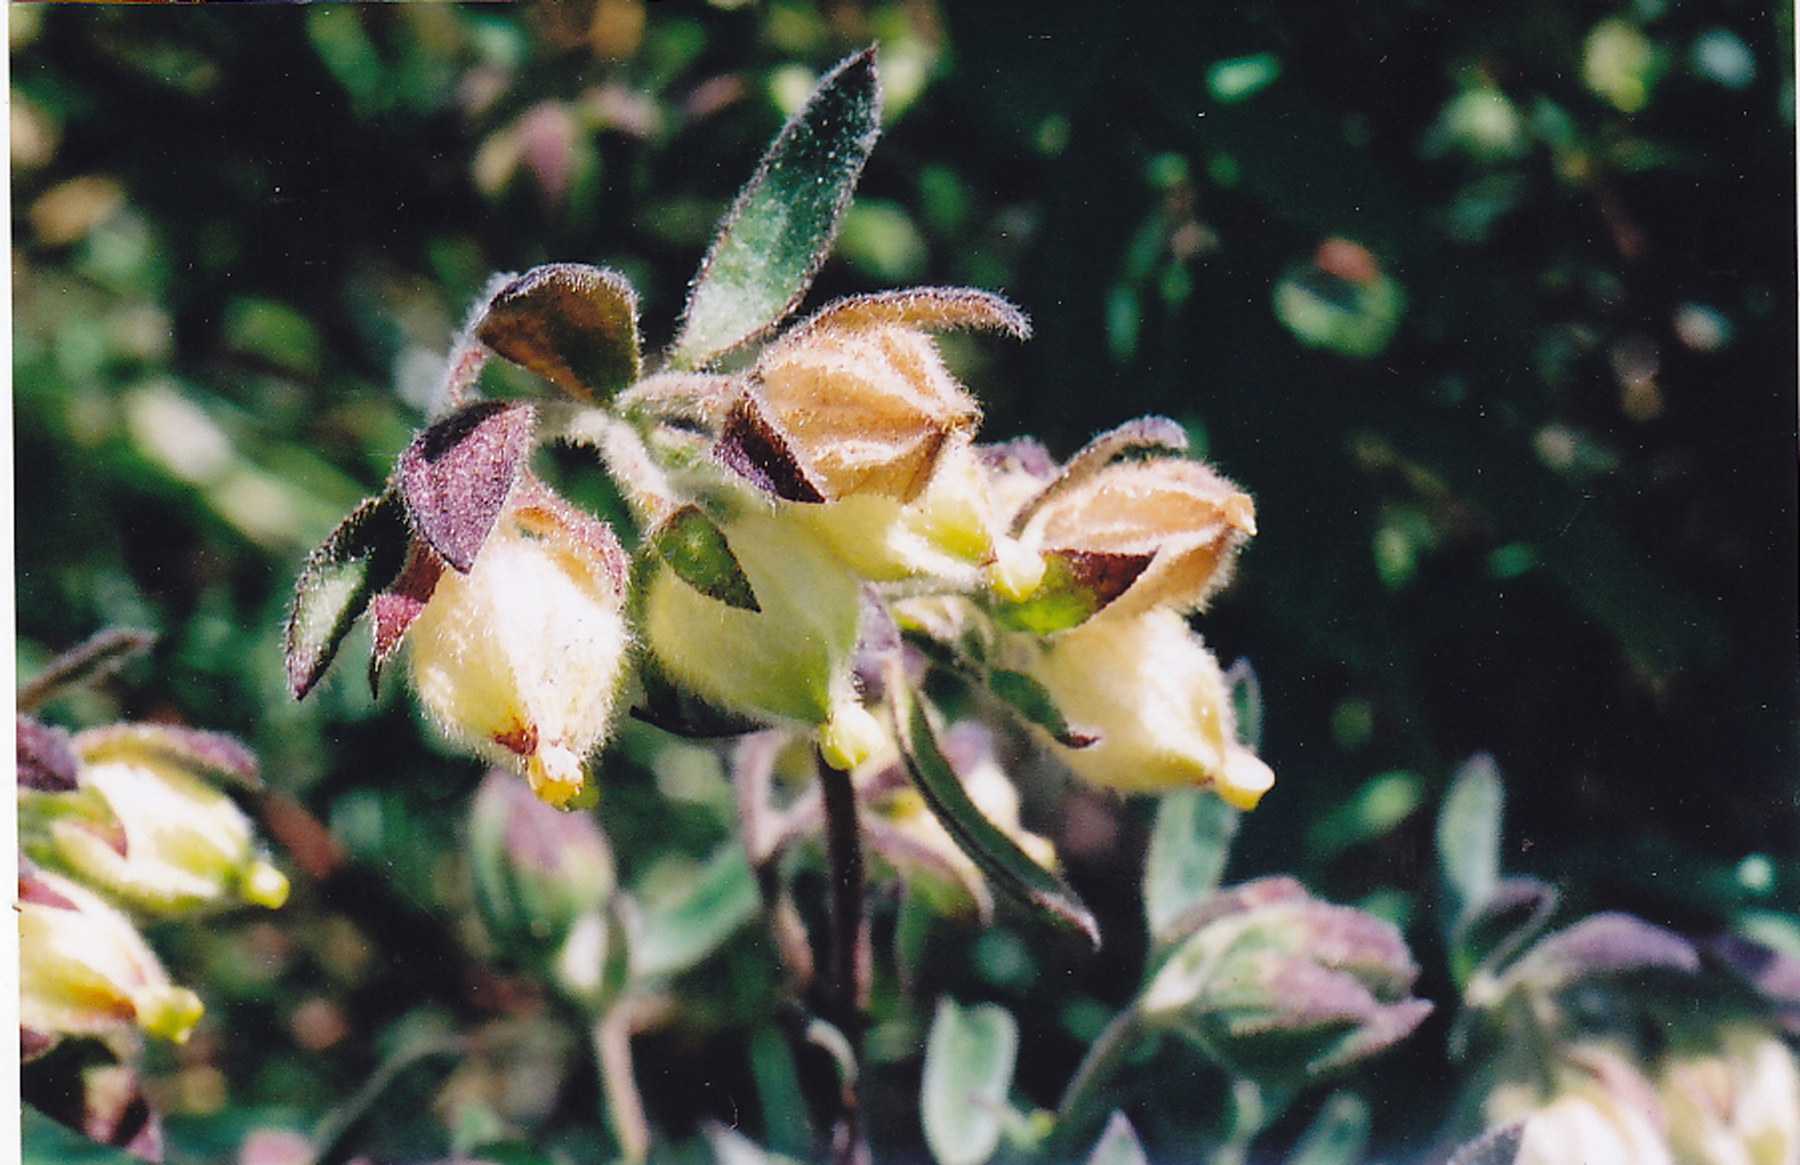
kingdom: Plantae
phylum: Tracheophyta
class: Magnoliopsida
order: Malvales
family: Malvaceae
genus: Hermannia
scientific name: Hermannia hyssopifolia
